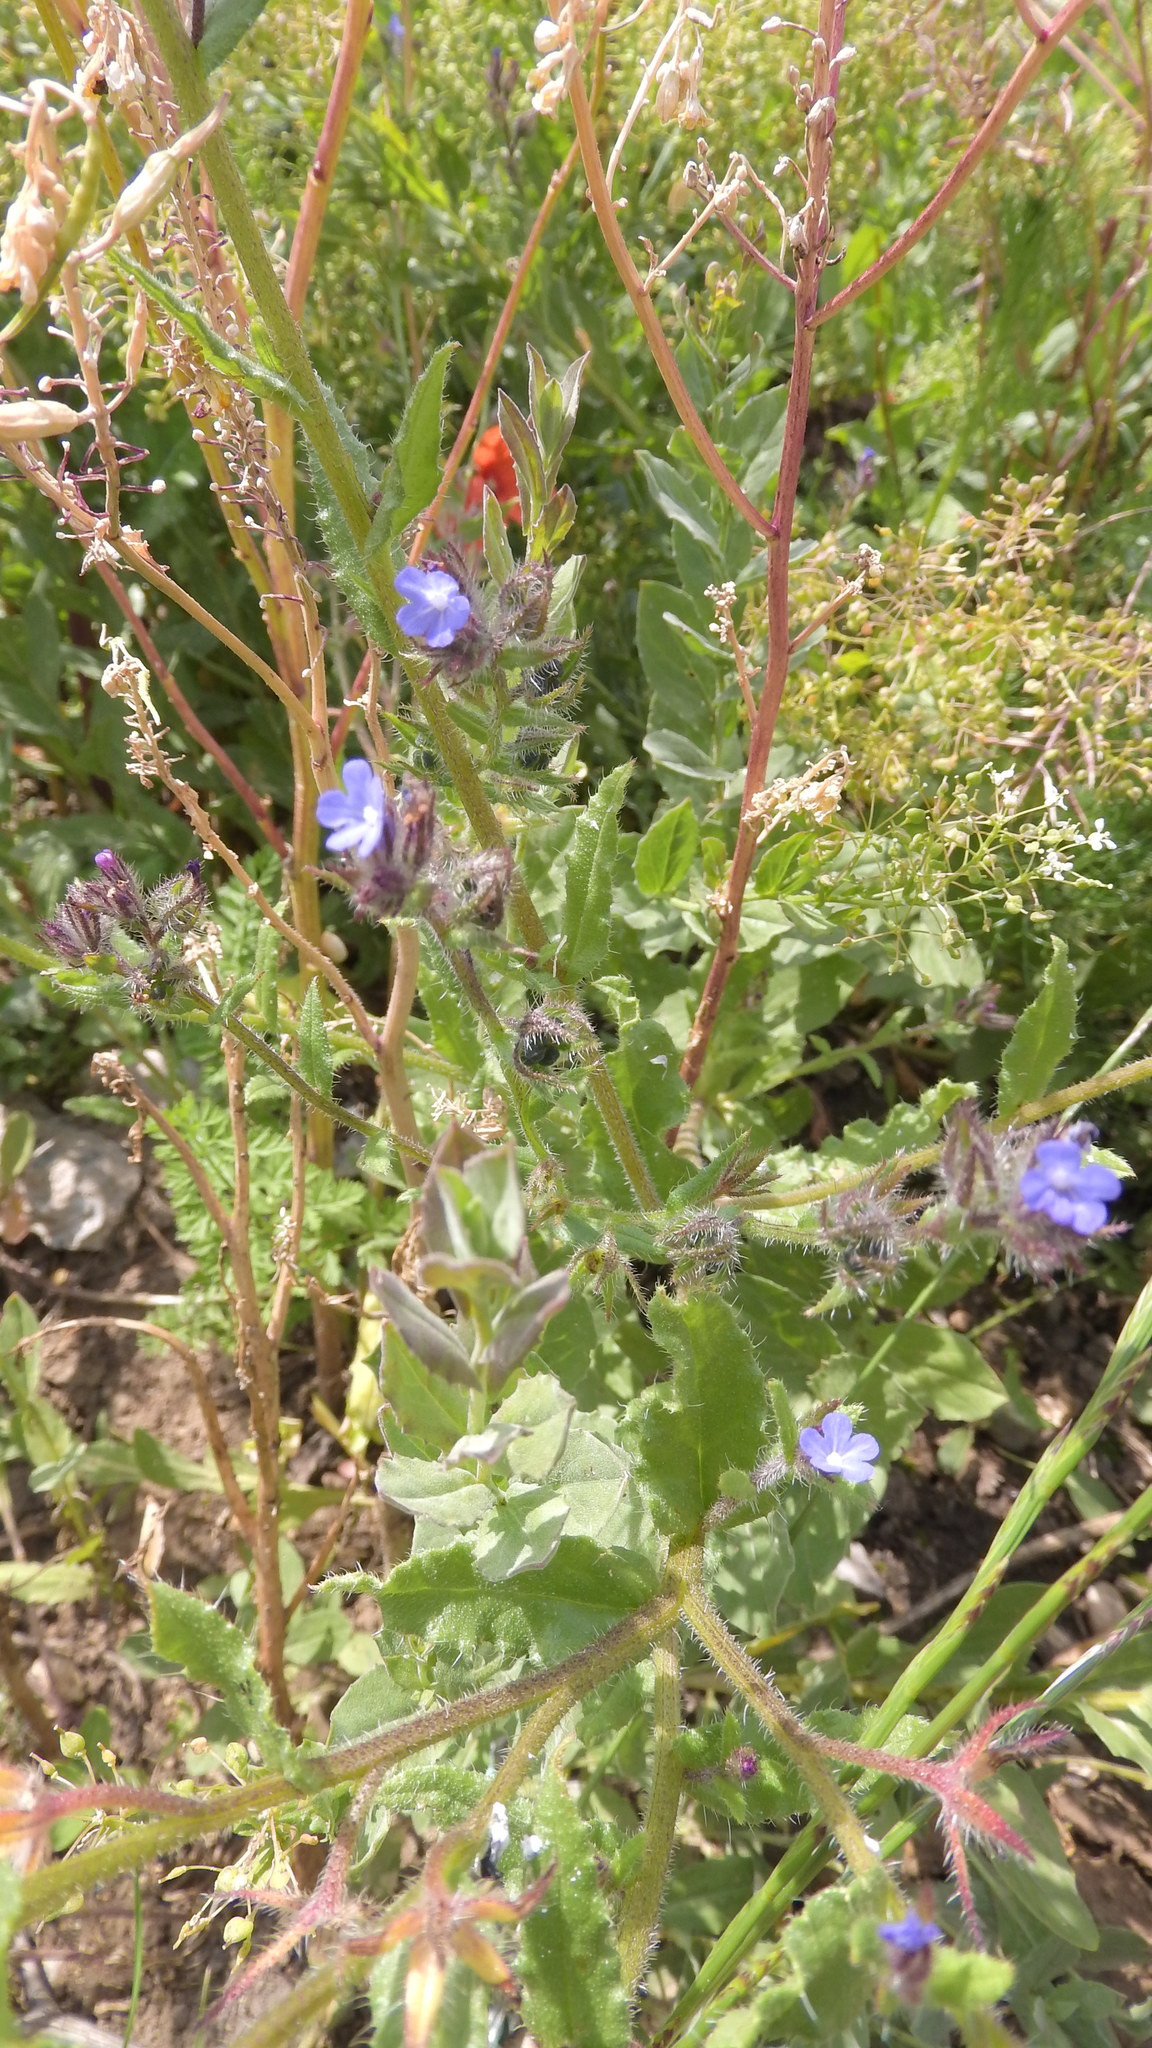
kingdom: Plantae
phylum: Tracheophyta
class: Magnoliopsida
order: Boraginales
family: Boraginaceae
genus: Lycopsis
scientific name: Lycopsis arvensis
